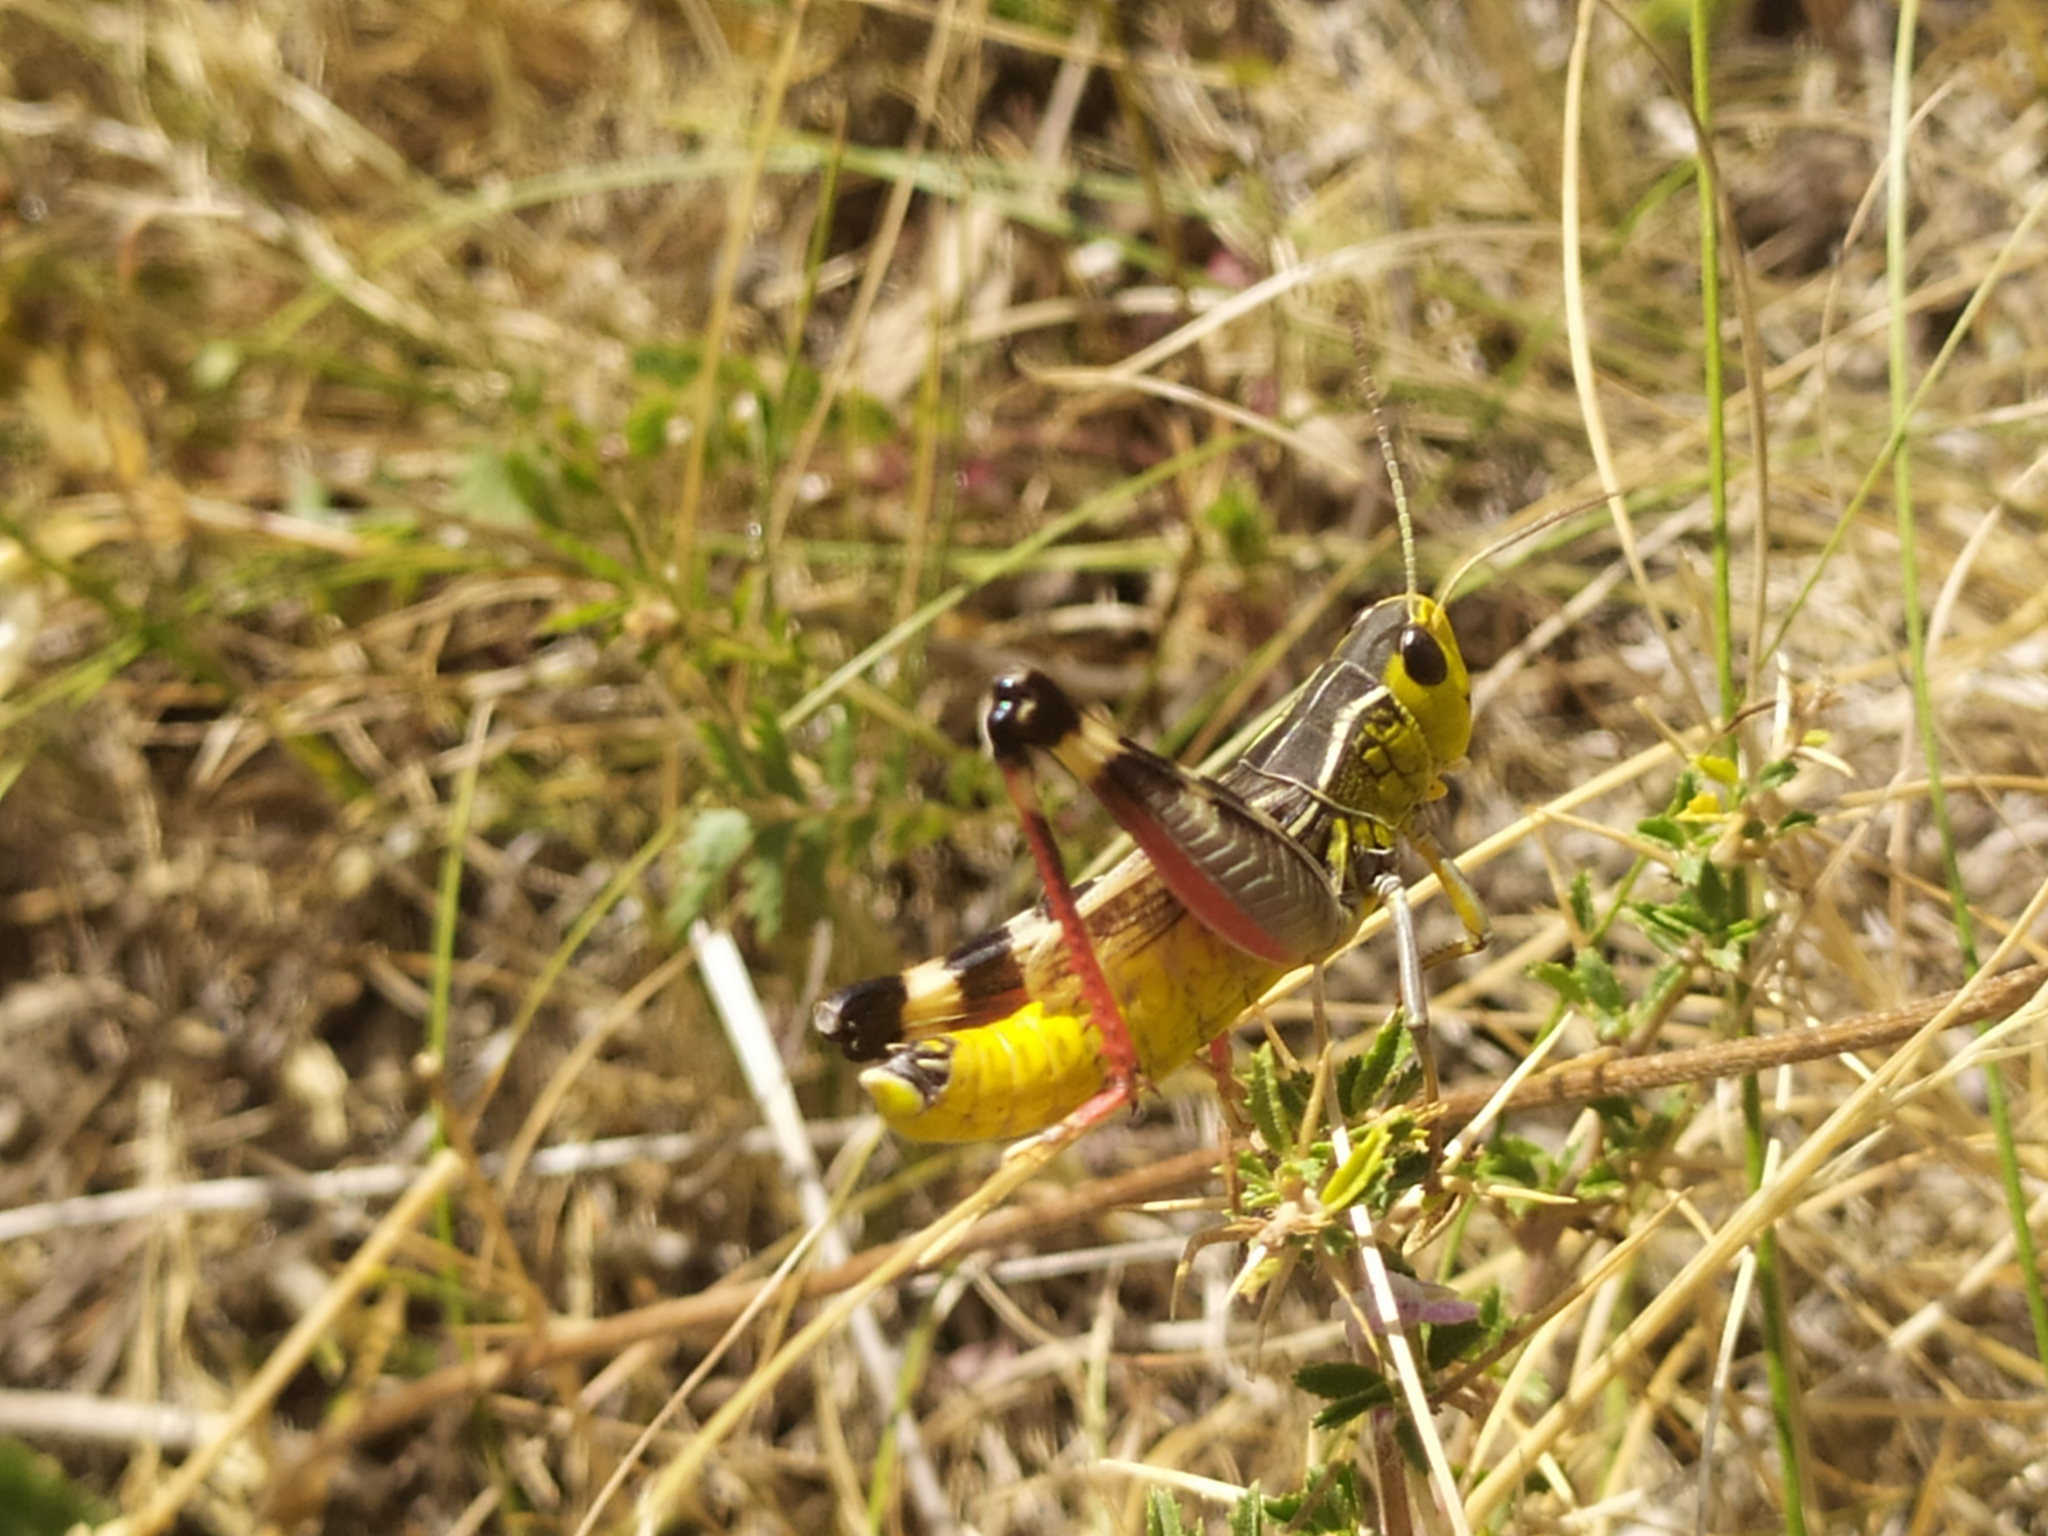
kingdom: Animalia
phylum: Arthropoda
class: Insecta
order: Orthoptera
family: Acrididae
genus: Arcyptera
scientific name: Arcyptera brevipennis
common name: Western banded grasshopper
